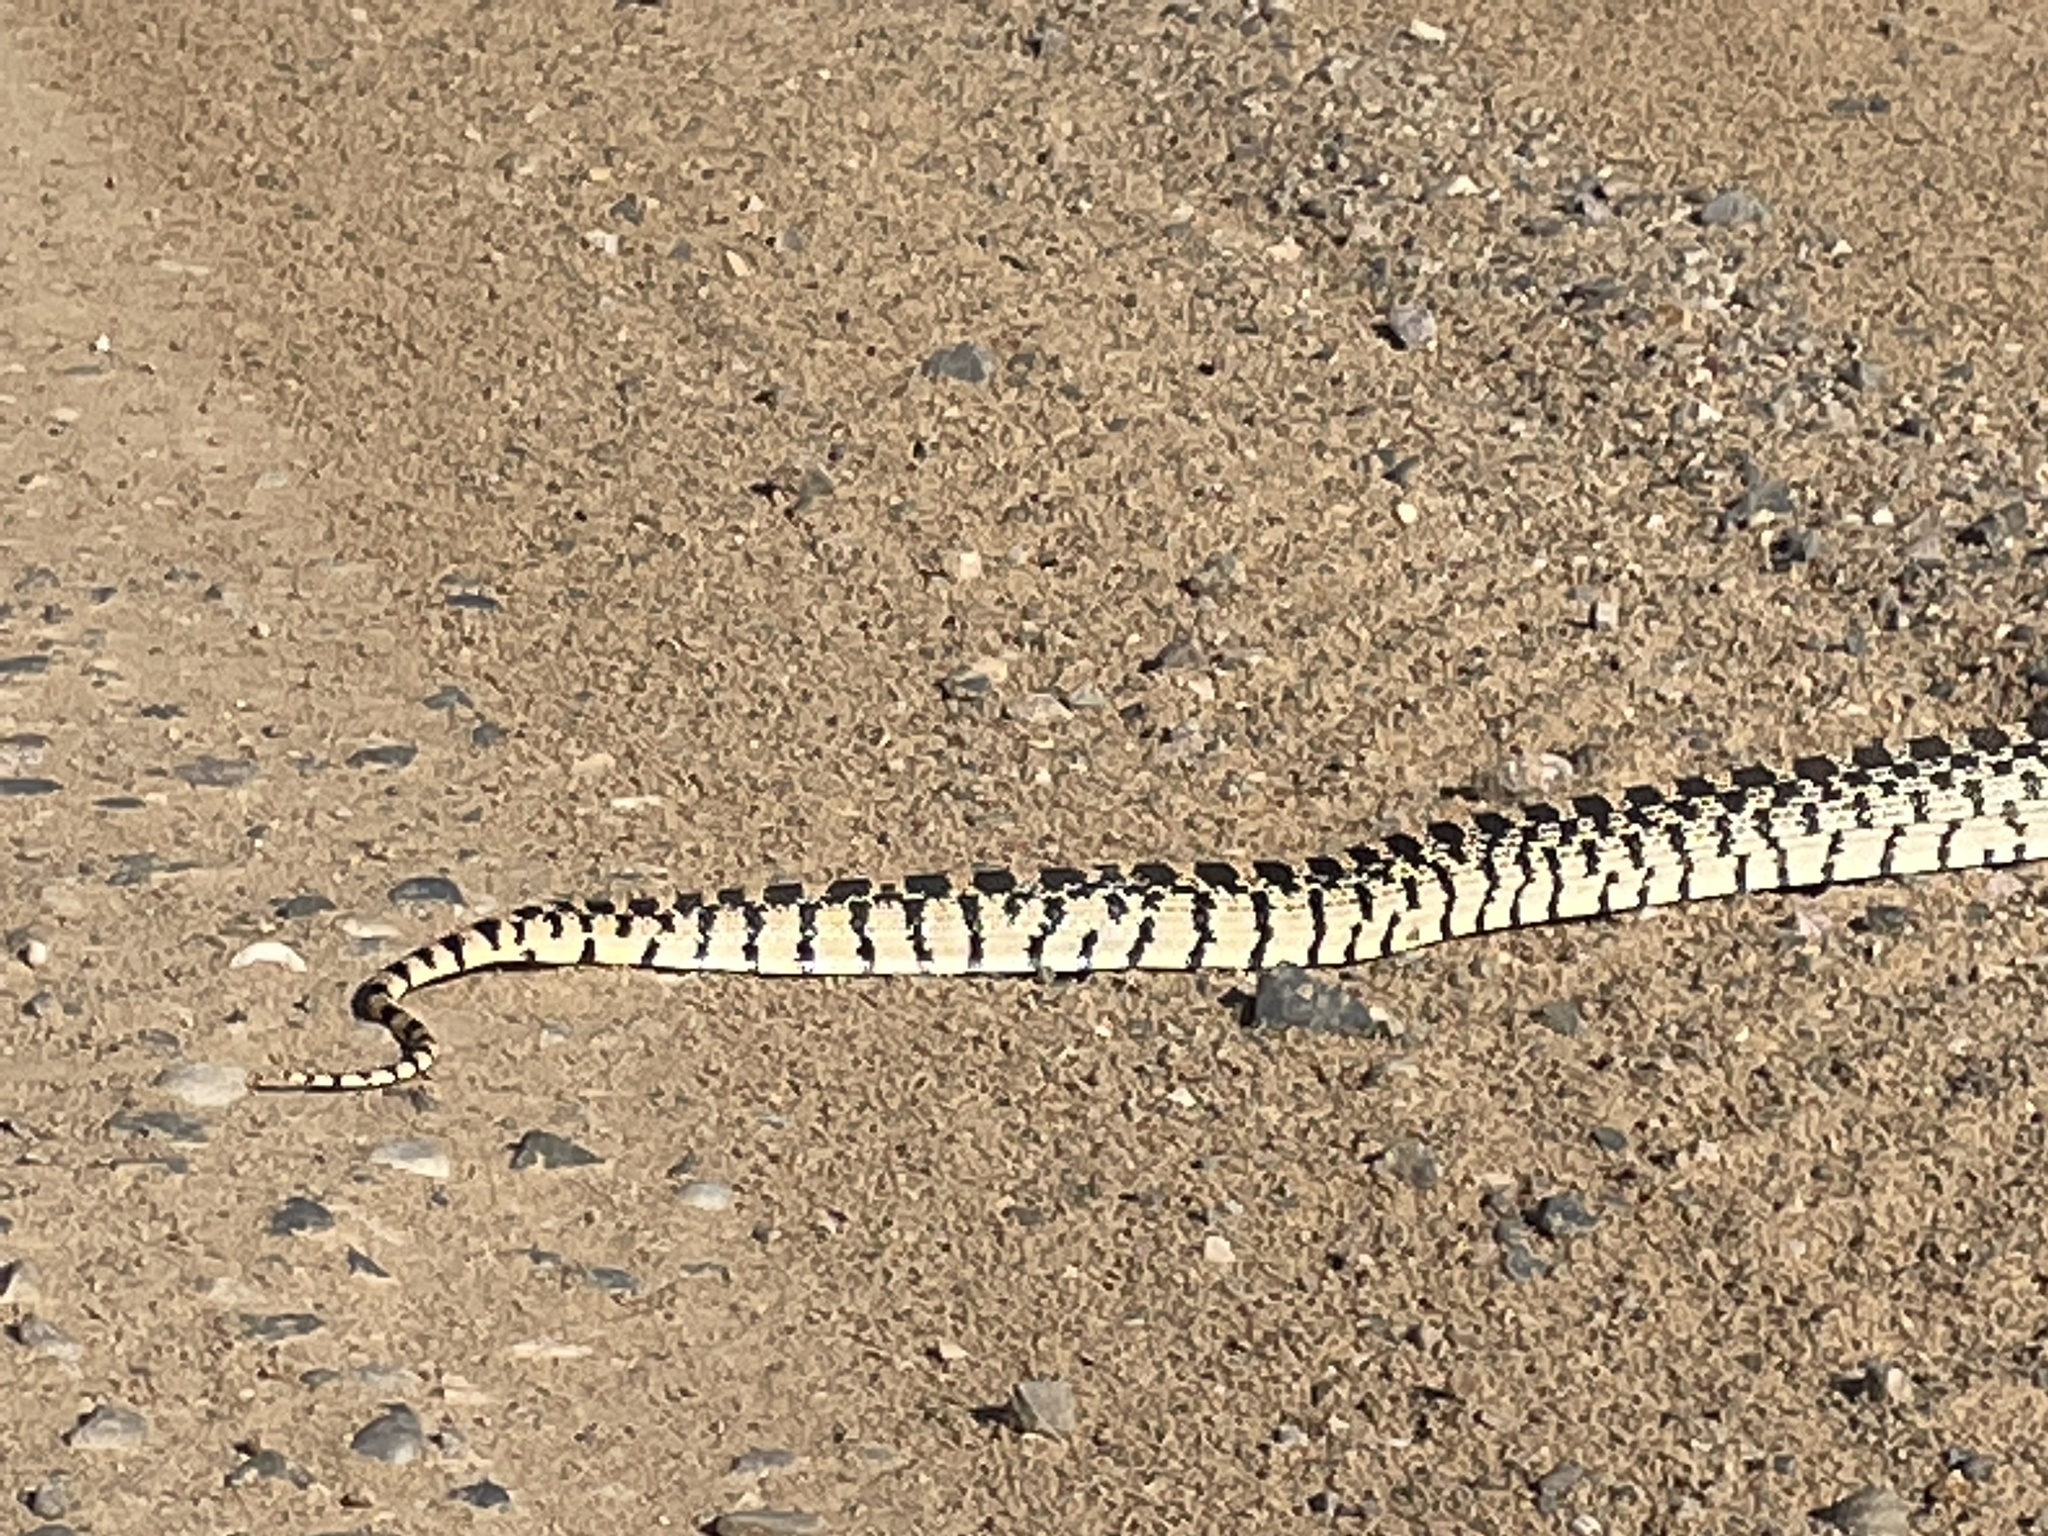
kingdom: Animalia
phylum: Chordata
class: Squamata
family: Colubridae
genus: Pituophis
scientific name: Pituophis catenifer
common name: Gopher snake
